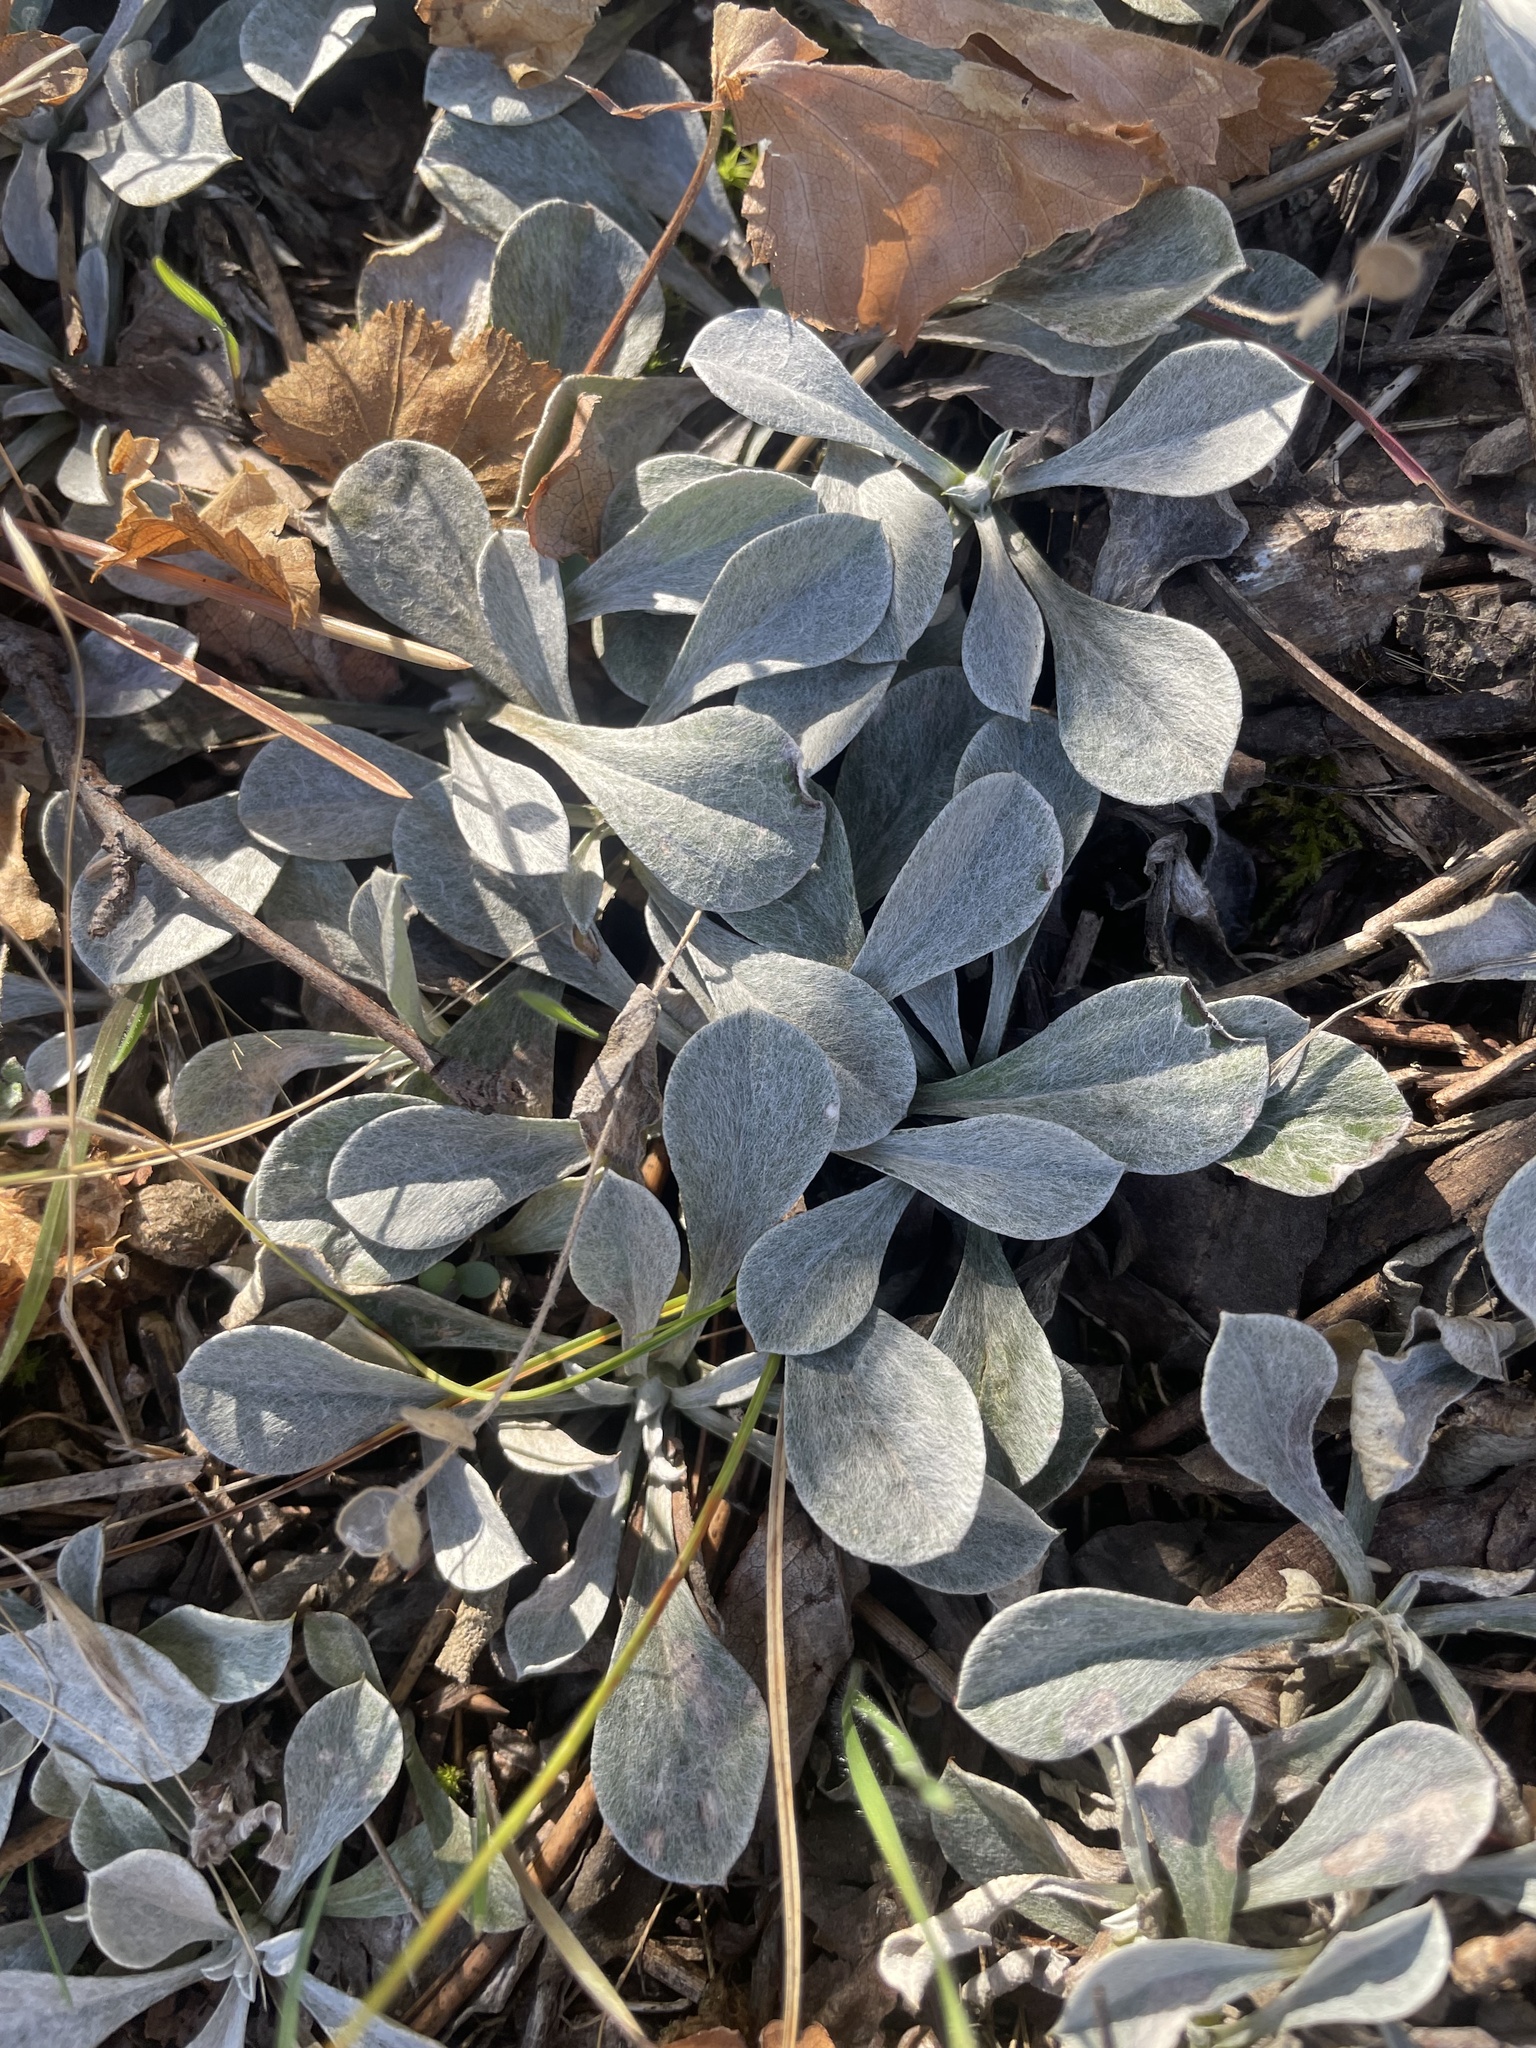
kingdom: Plantae
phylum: Tracheophyta
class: Magnoliopsida
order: Asterales
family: Asteraceae
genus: Antennaria
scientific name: Antennaria howellii
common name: Howell's pussytoes
